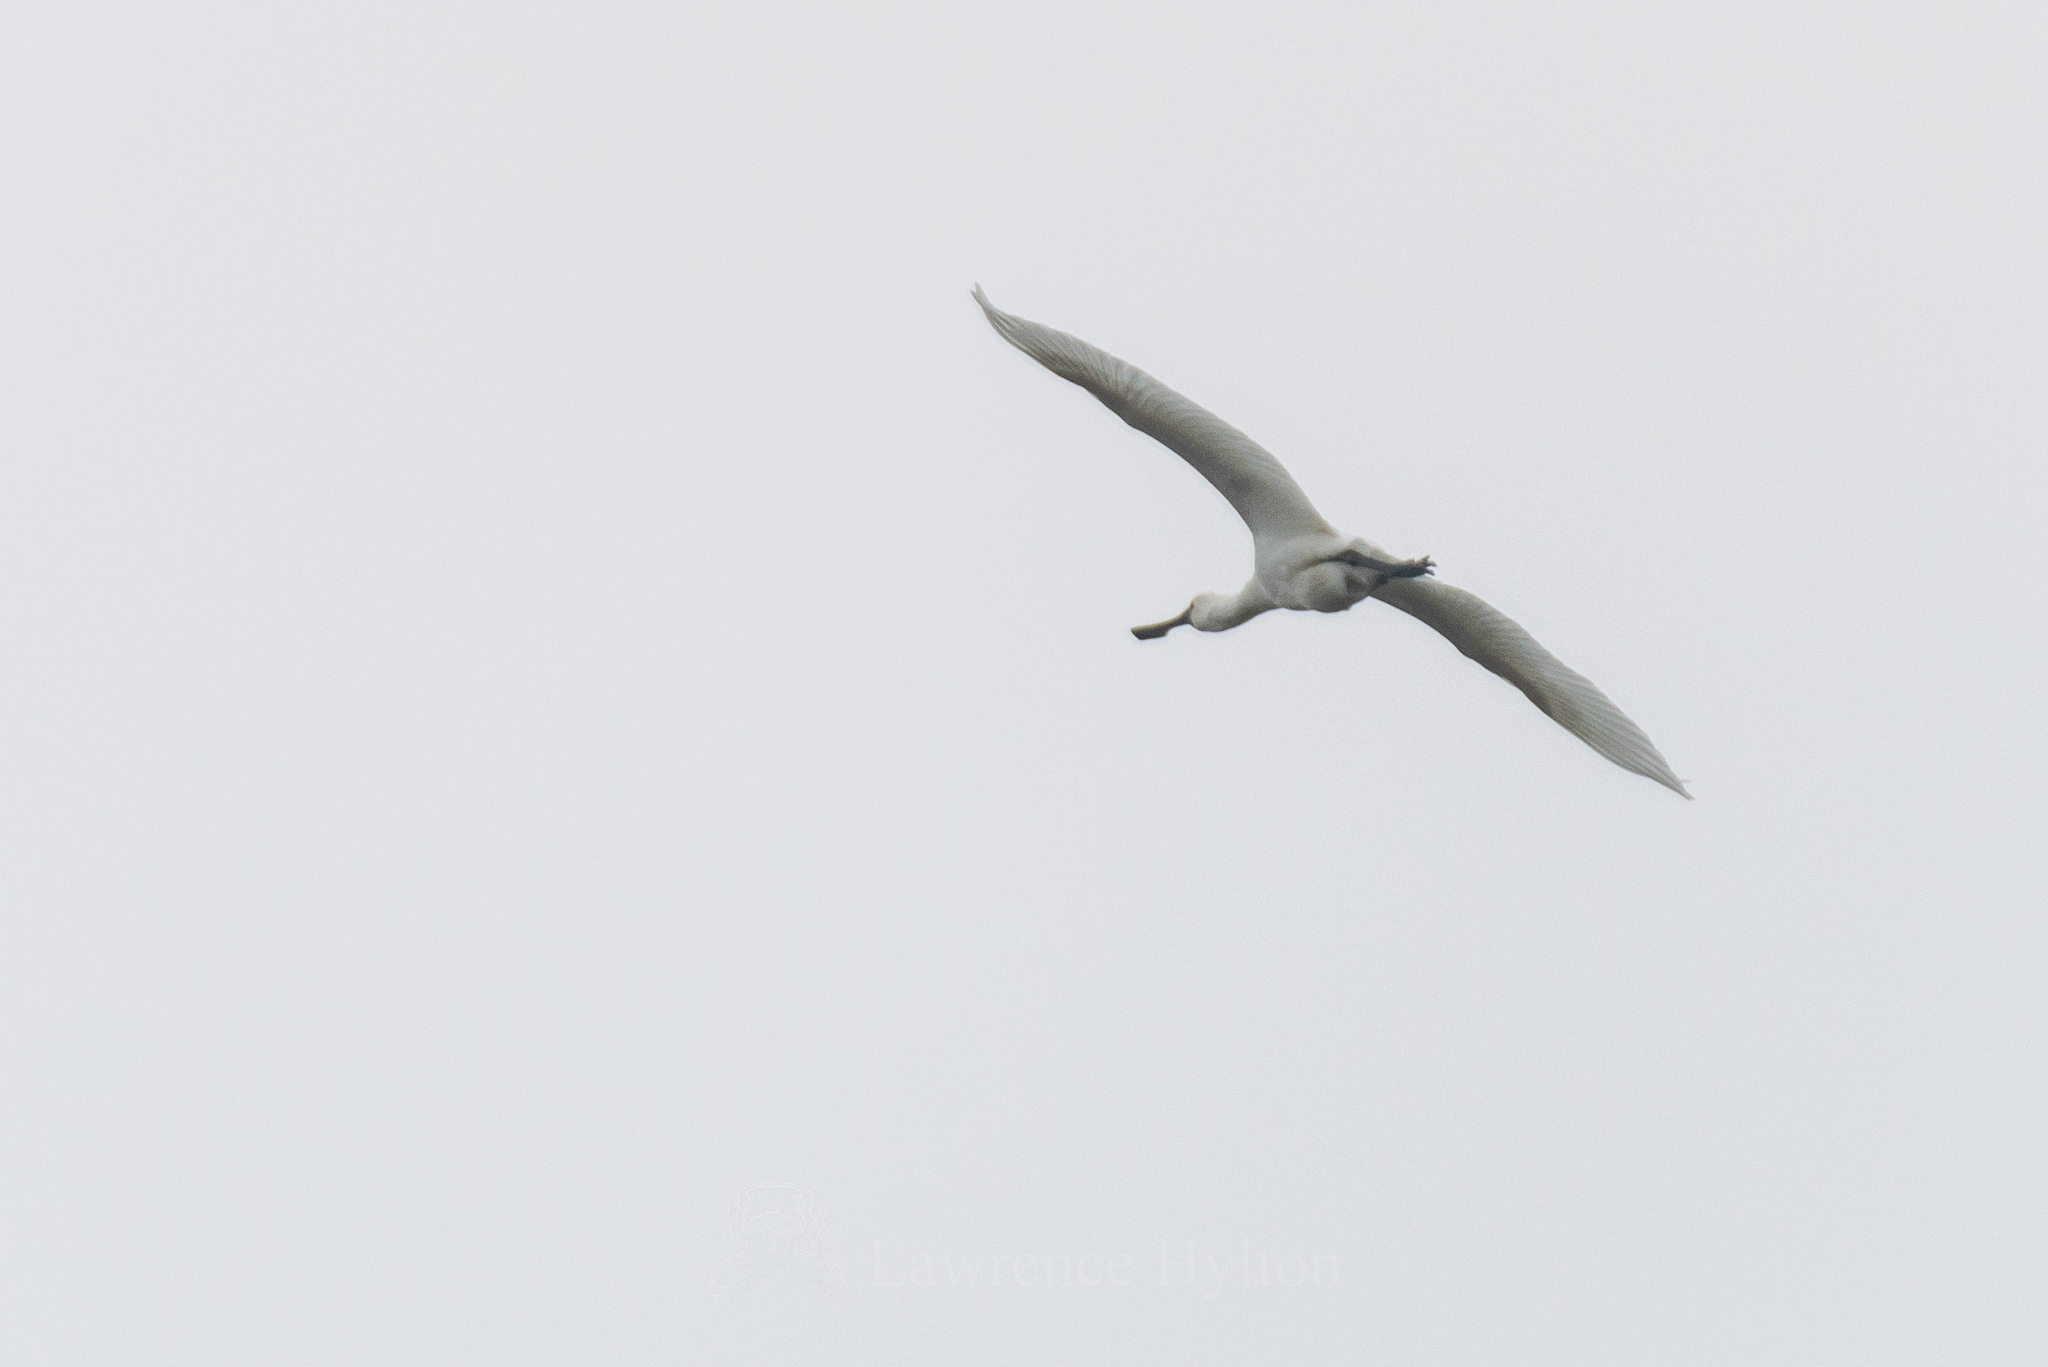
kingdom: Animalia
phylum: Chordata
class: Aves
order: Pelecaniformes
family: Threskiornithidae
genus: Platalea
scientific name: Platalea minor
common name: Black-faced spoonbill
